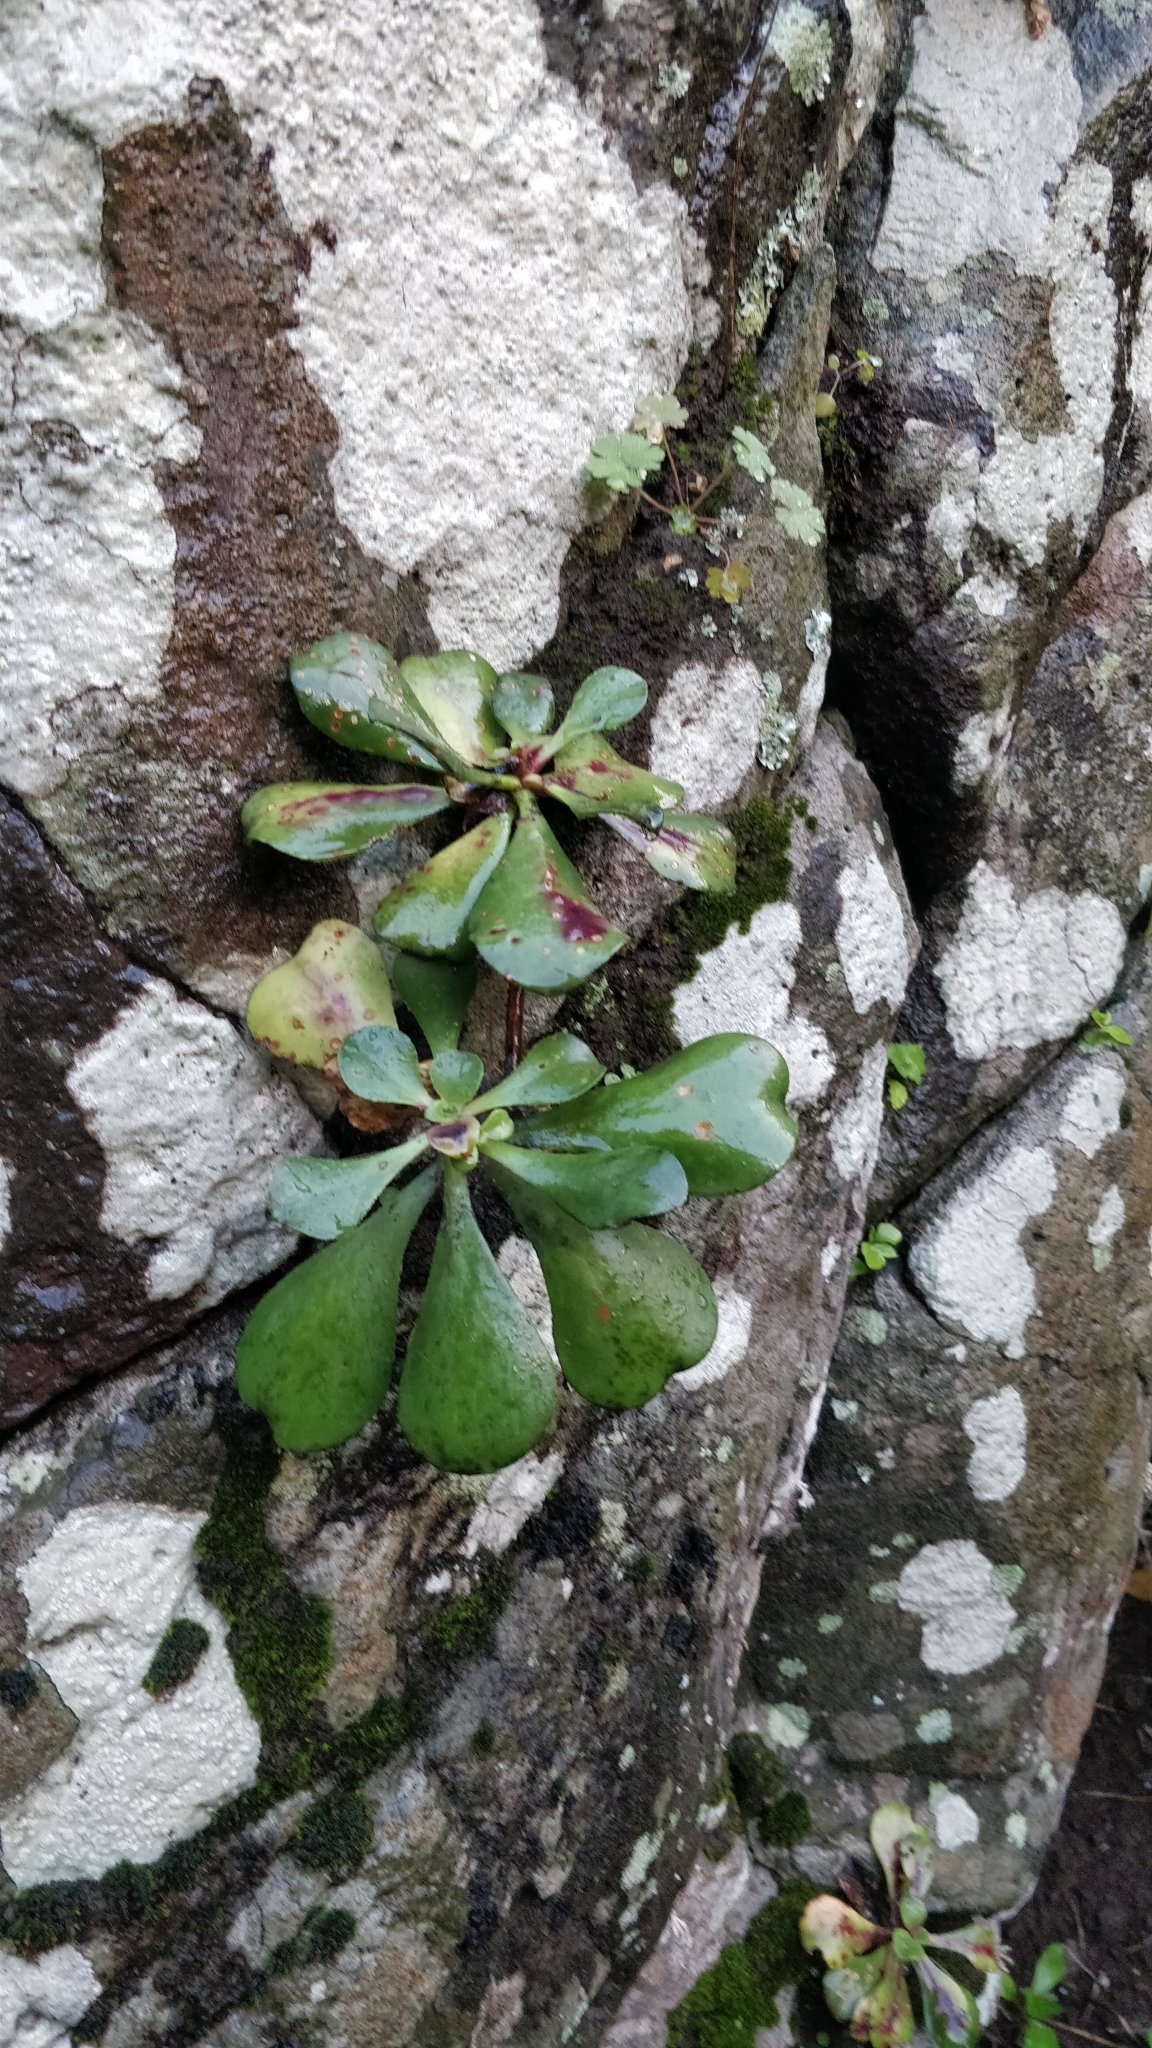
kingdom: Plantae
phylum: Tracheophyta
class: Magnoliopsida
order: Saxifragales
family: Crassulaceae
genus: Aeonium
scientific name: Aeonium glutinosum
